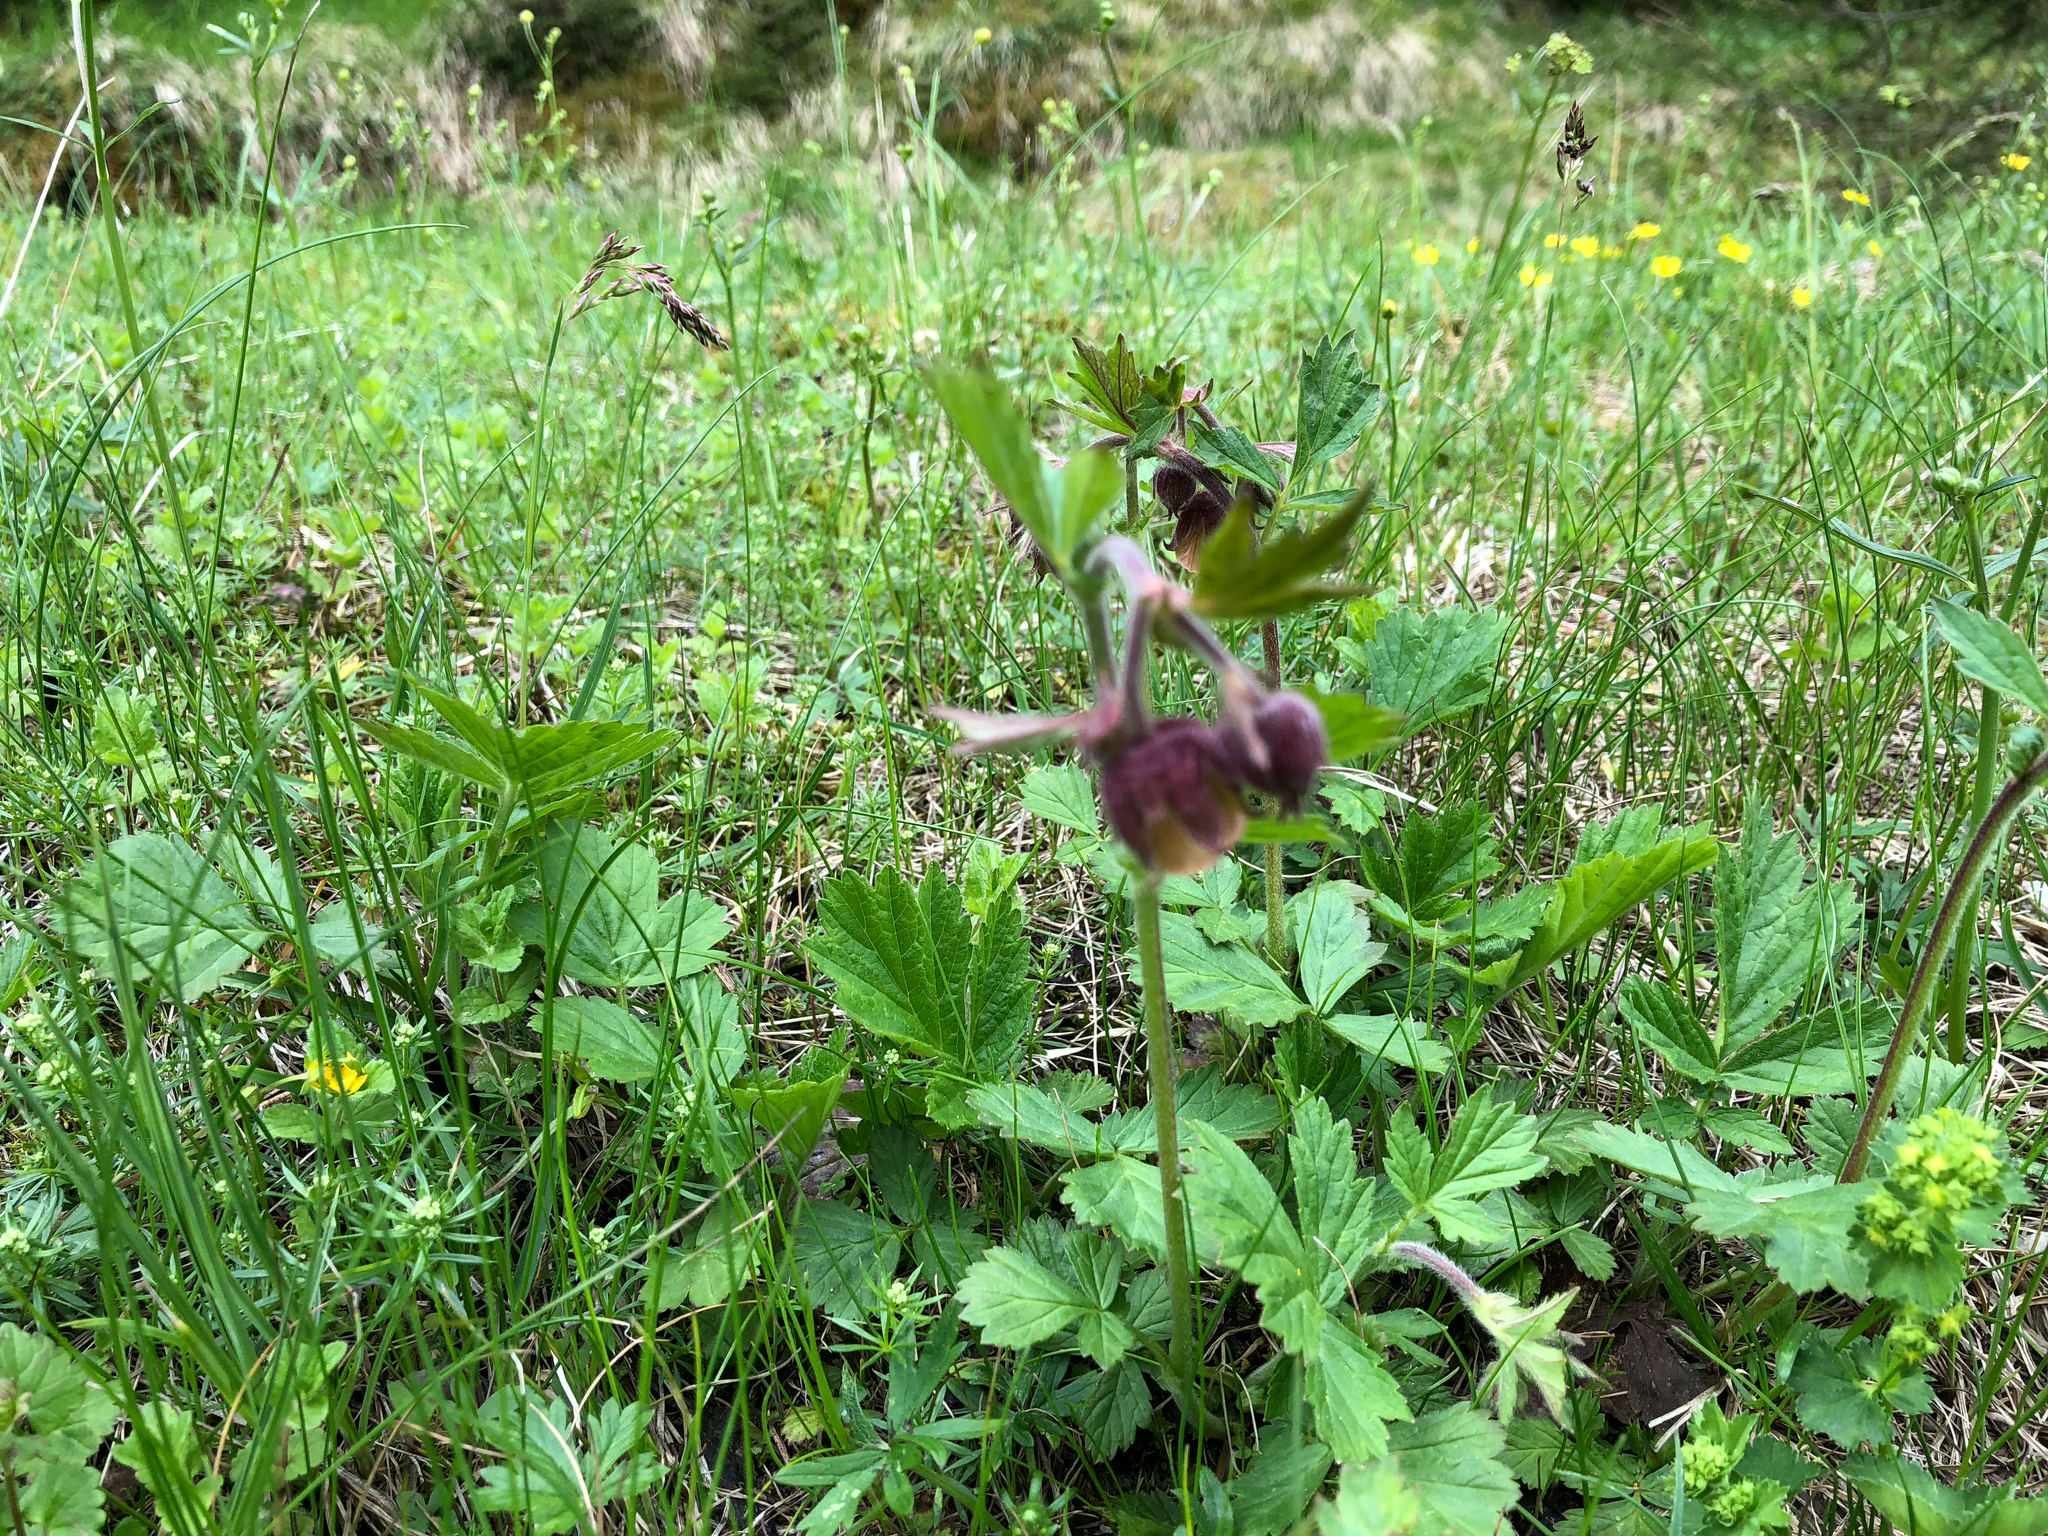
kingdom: Plantae
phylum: Tracheophyta
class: Magnoliopsida
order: Rosales
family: Rosaceae
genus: Geum
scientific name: Geum rivale
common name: Water avens
